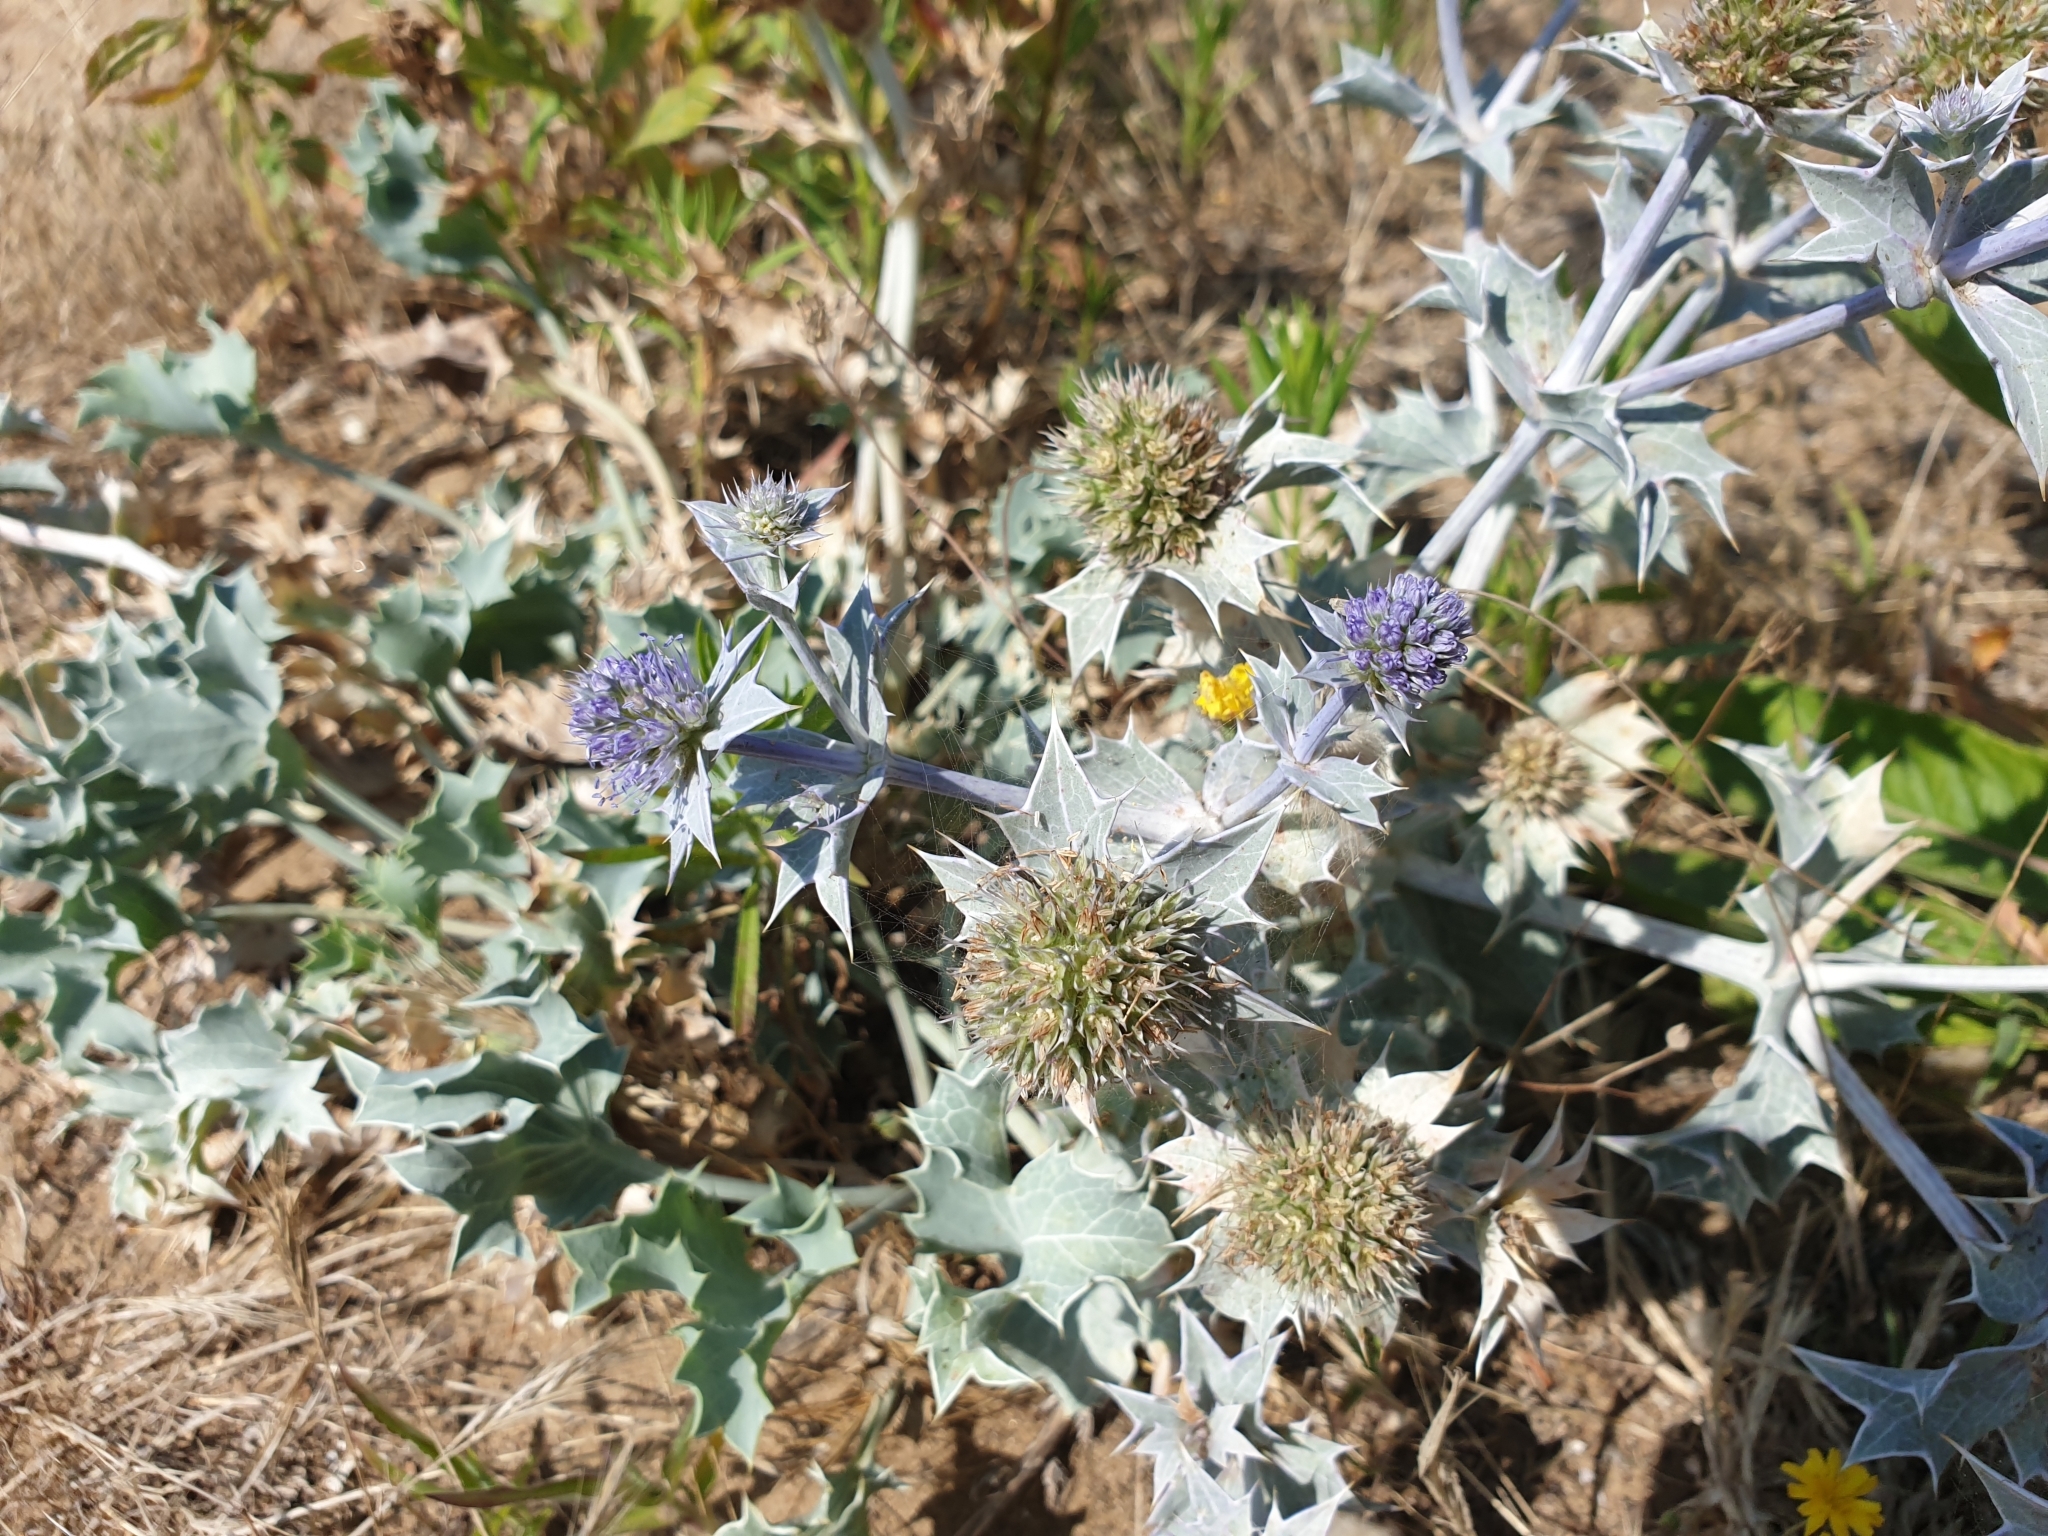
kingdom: Plantae
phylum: Tracheophyta
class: Magnoliopsida
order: Apiales
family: Apiaceae
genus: Eryngium
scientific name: Eryngium maritimum
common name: Sea-holly
